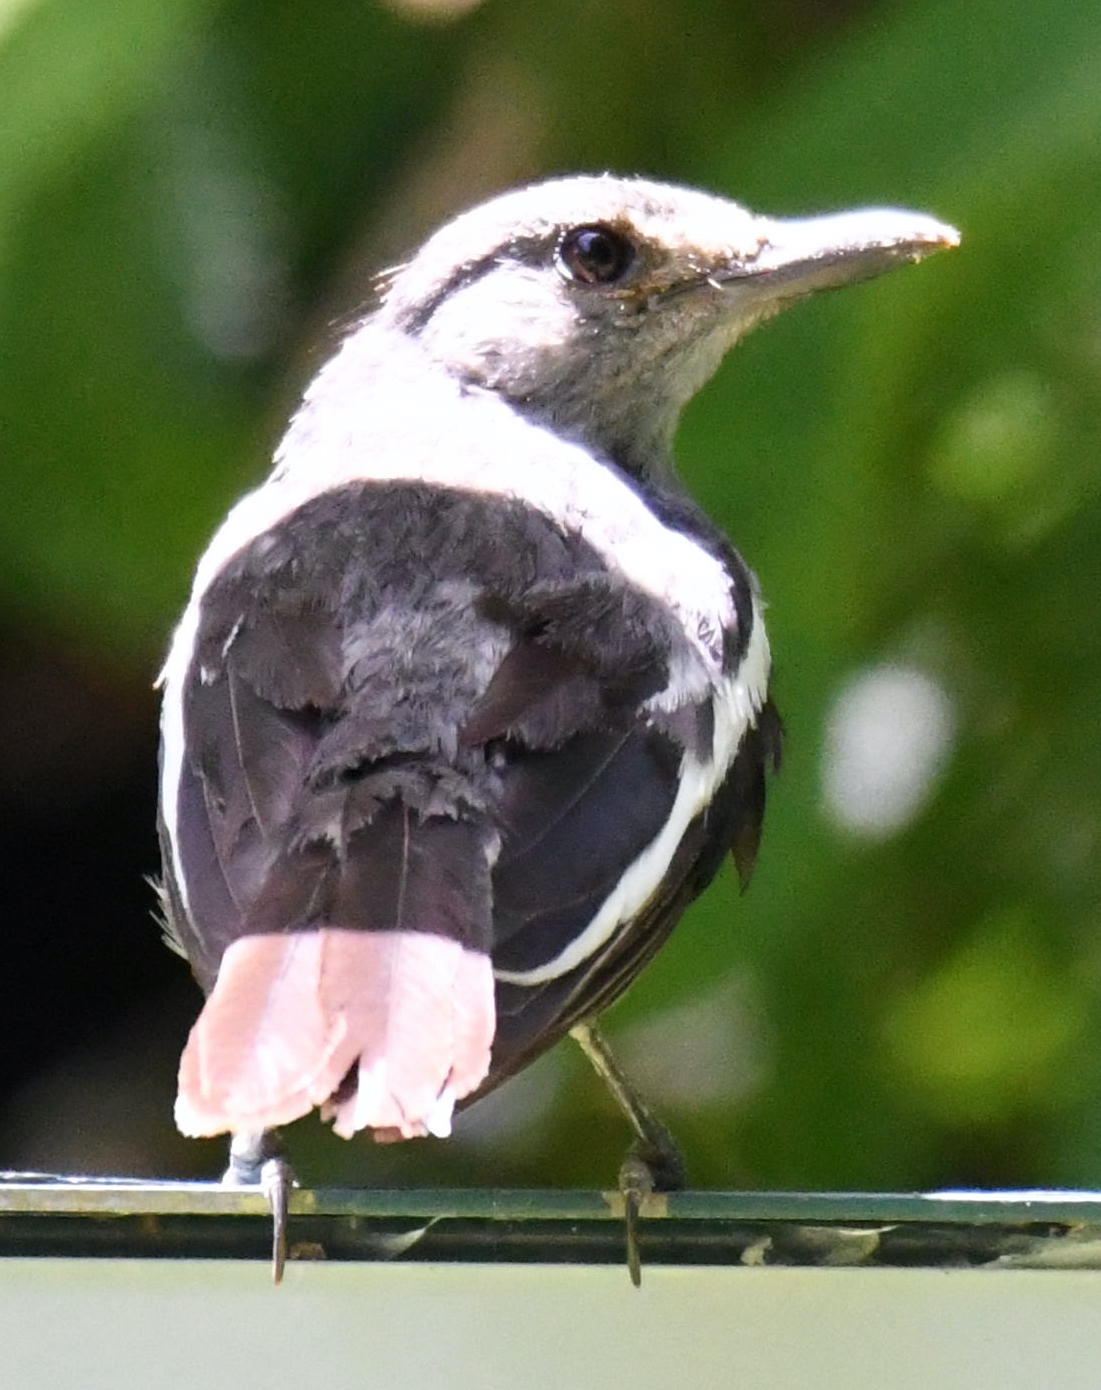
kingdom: Animalia
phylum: Chordata
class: Aves
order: Passeriformes
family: Muscicapidae
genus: Copsychus
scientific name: Copsychus saularis
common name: Oriental magpie-robin
